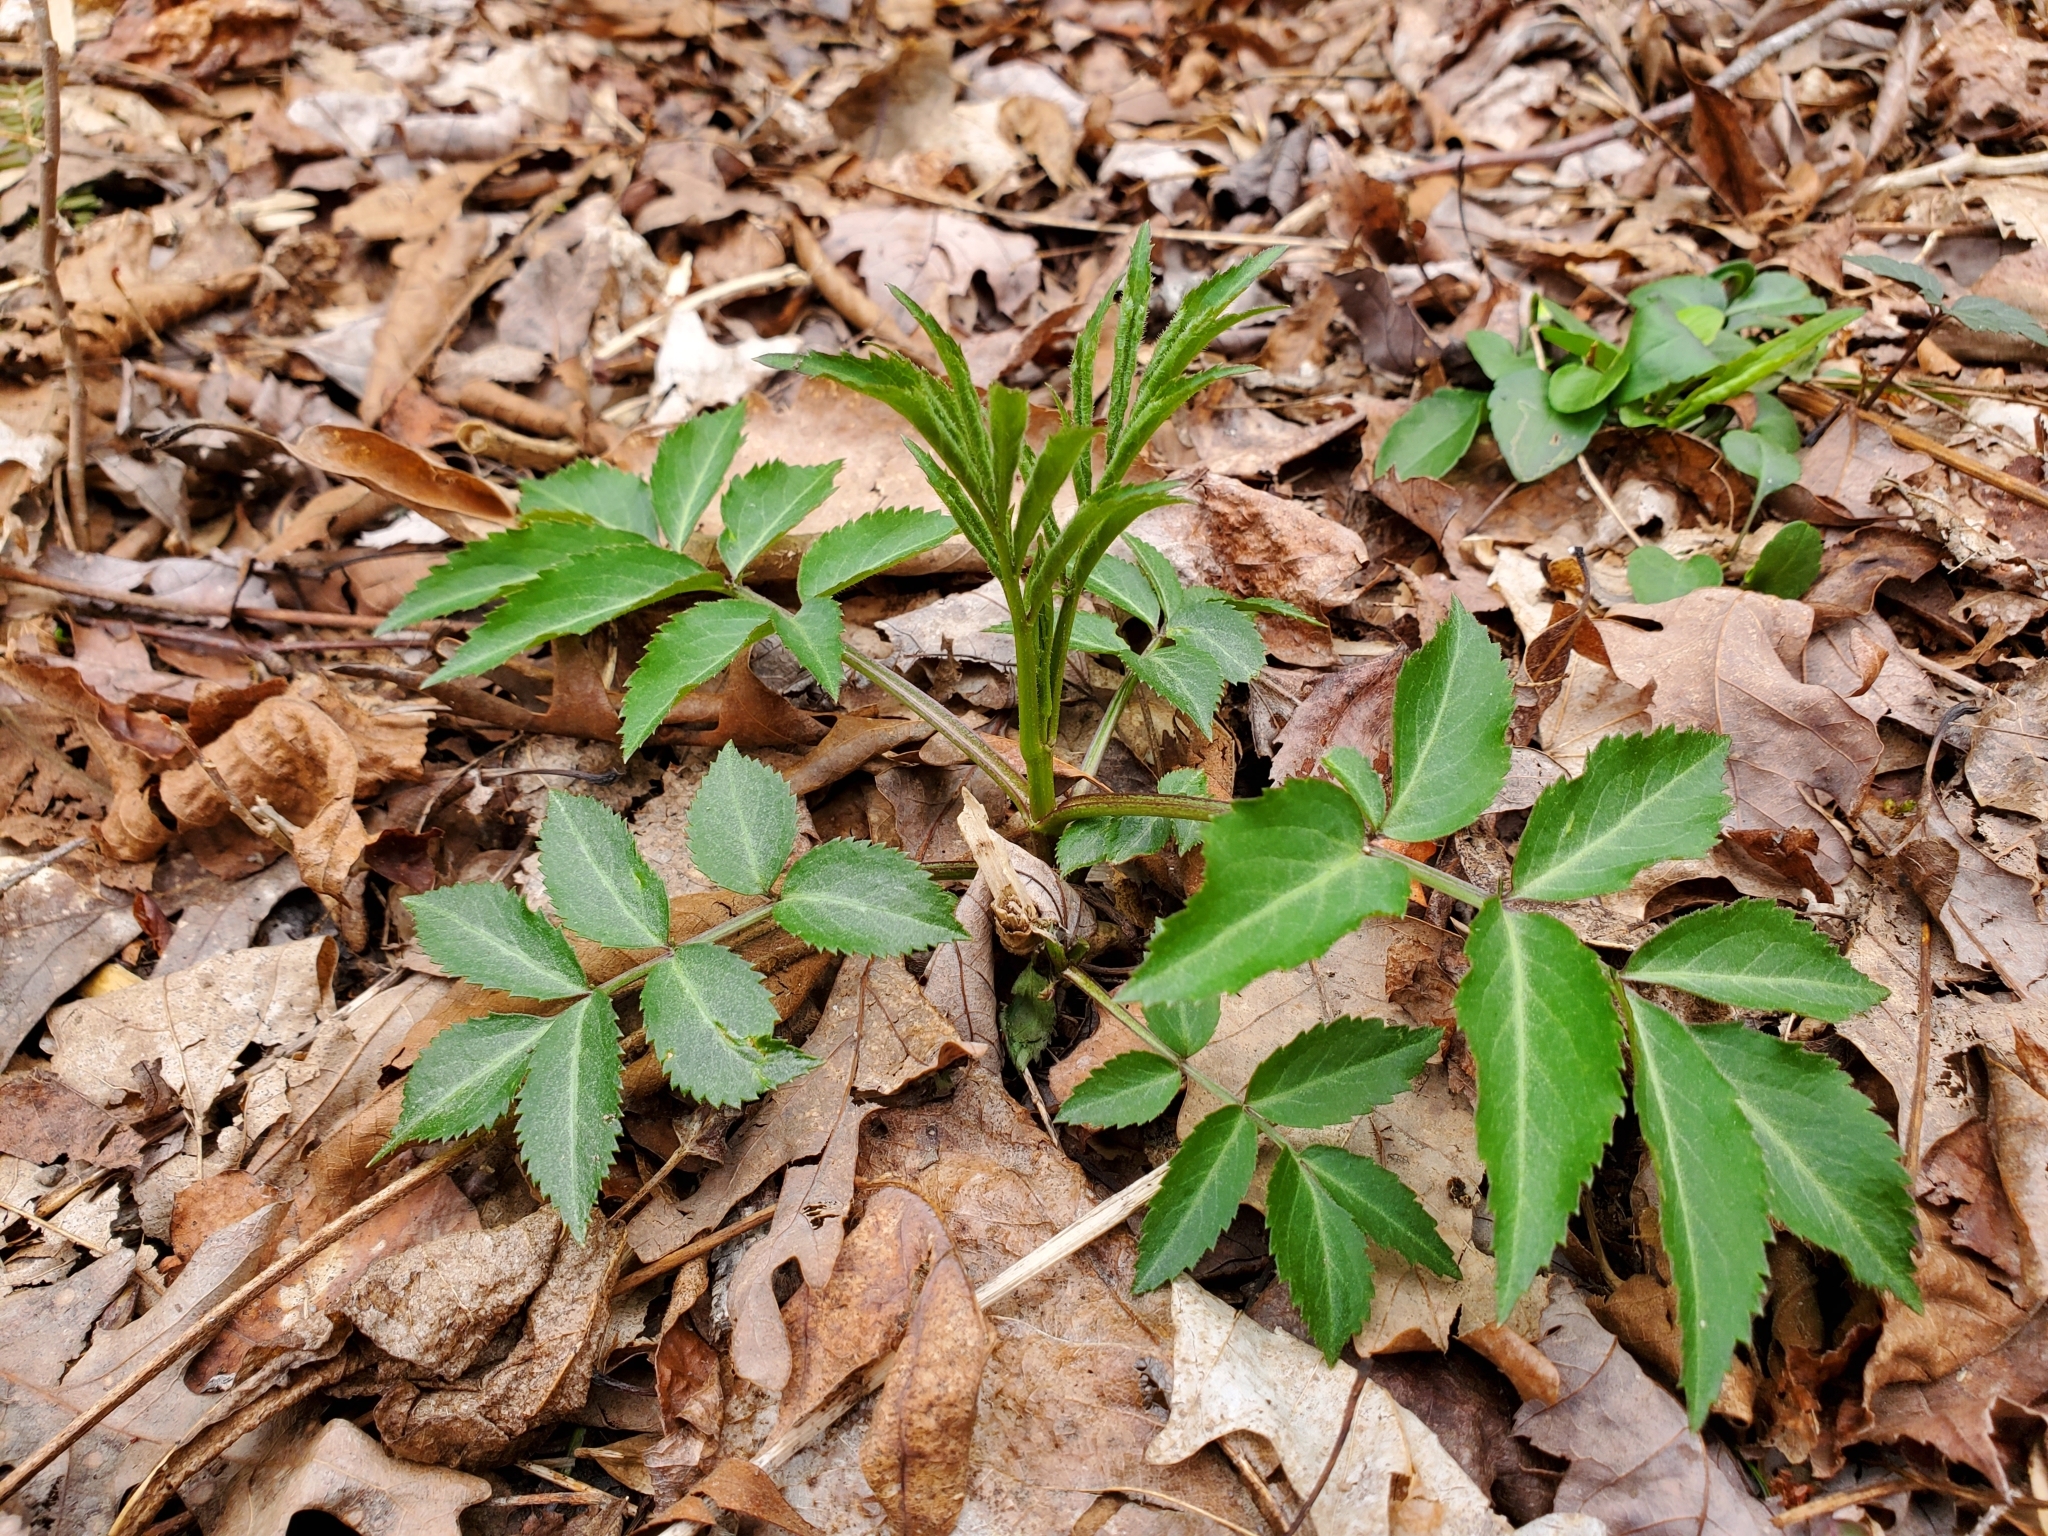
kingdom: Plantae
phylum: Tracheophyta
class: Magnoliopsida
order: Dipsacales
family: Viburnaceae
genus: Sambucus
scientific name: Sambucus canadensis
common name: American elder
